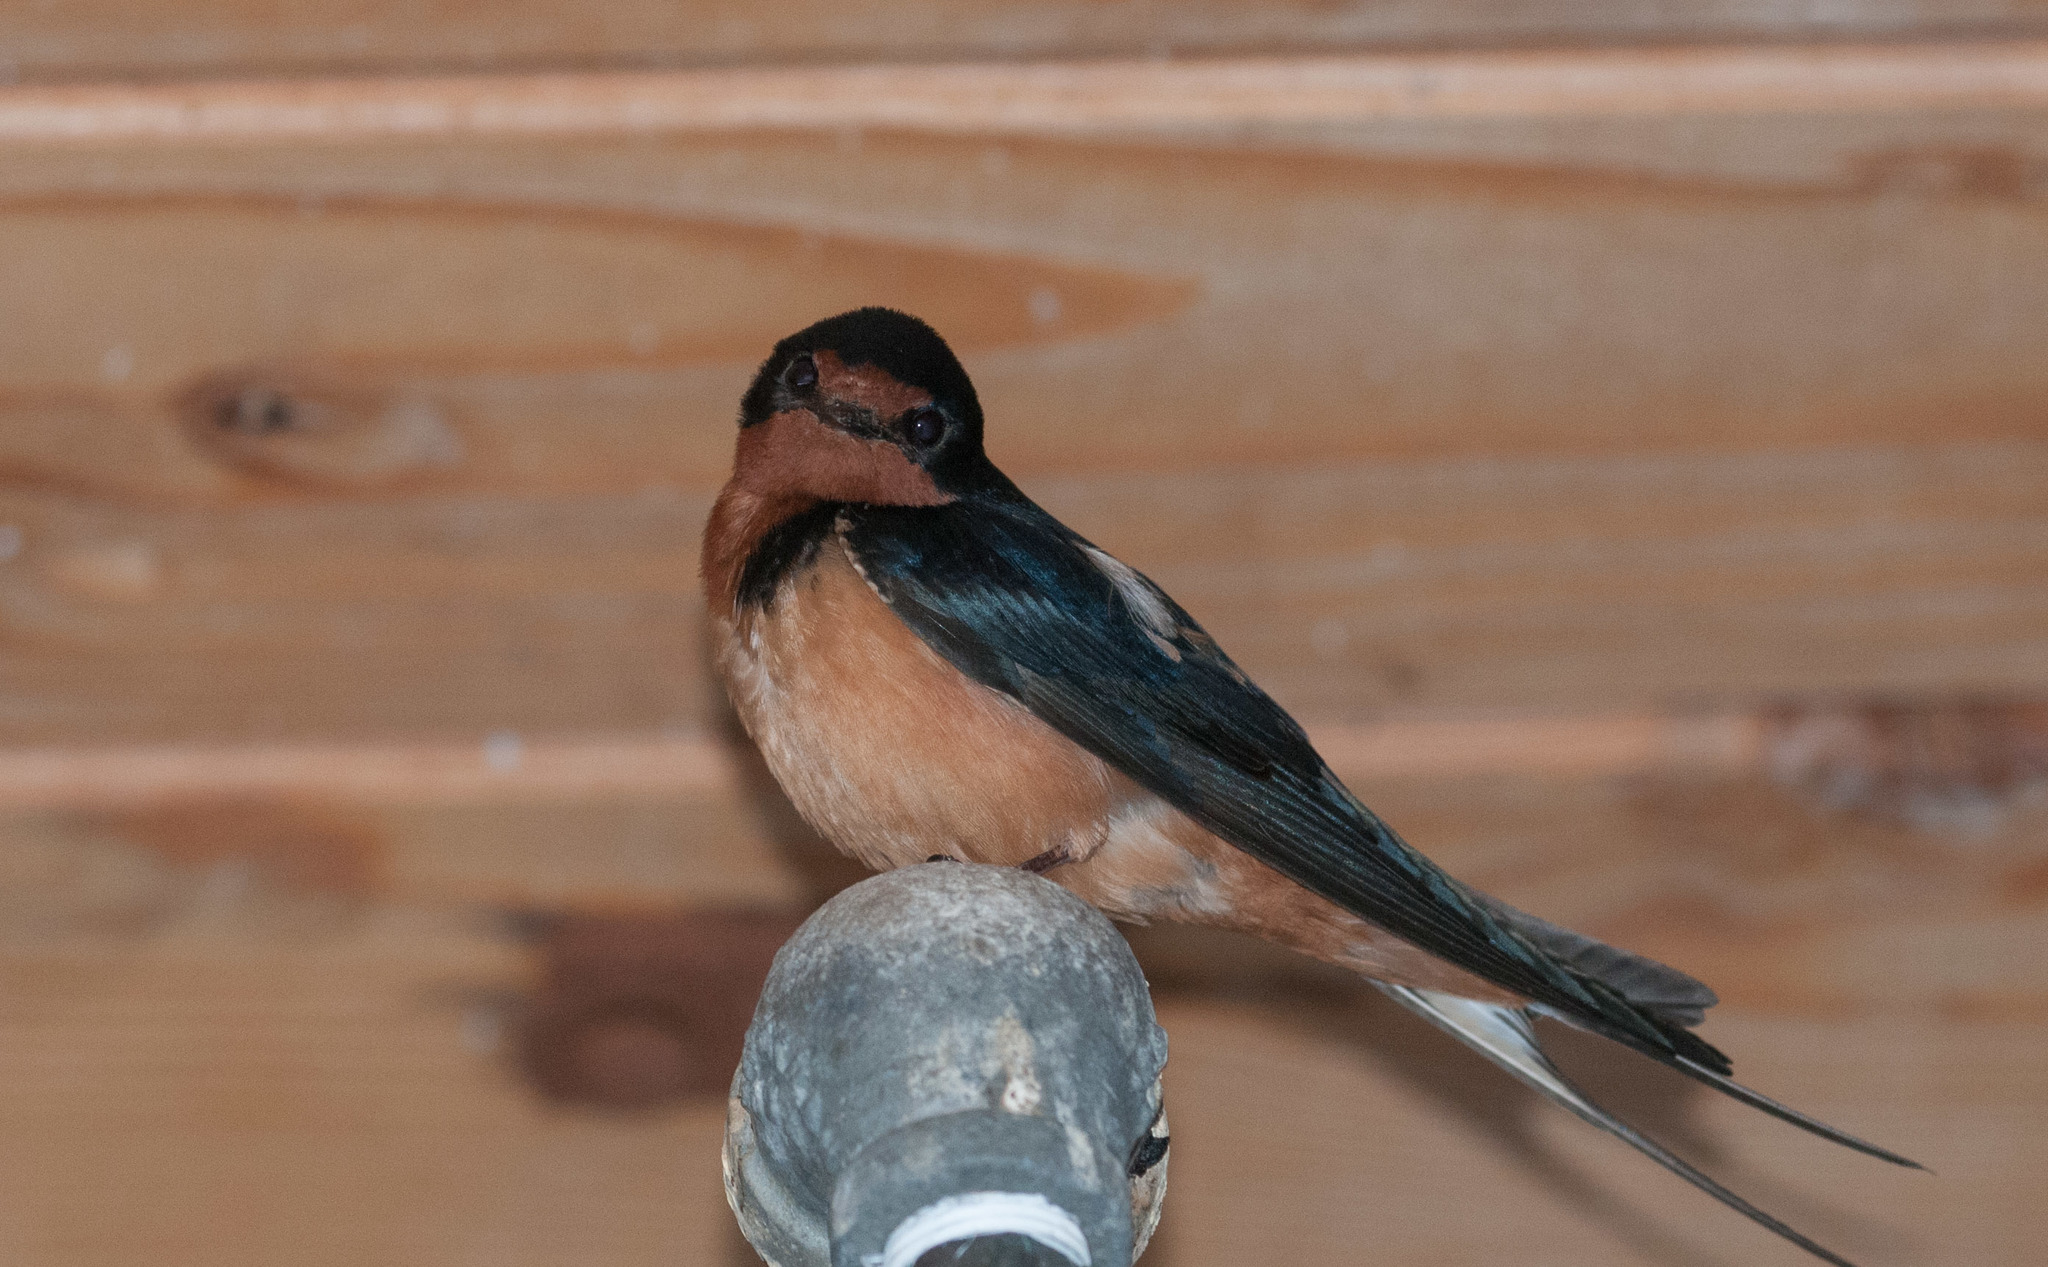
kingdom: Animalia
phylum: Chordata
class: Aves
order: Passeriformes
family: Hirundinidae
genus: Hirundo
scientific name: Hirundo rustica
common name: Barn swallow
